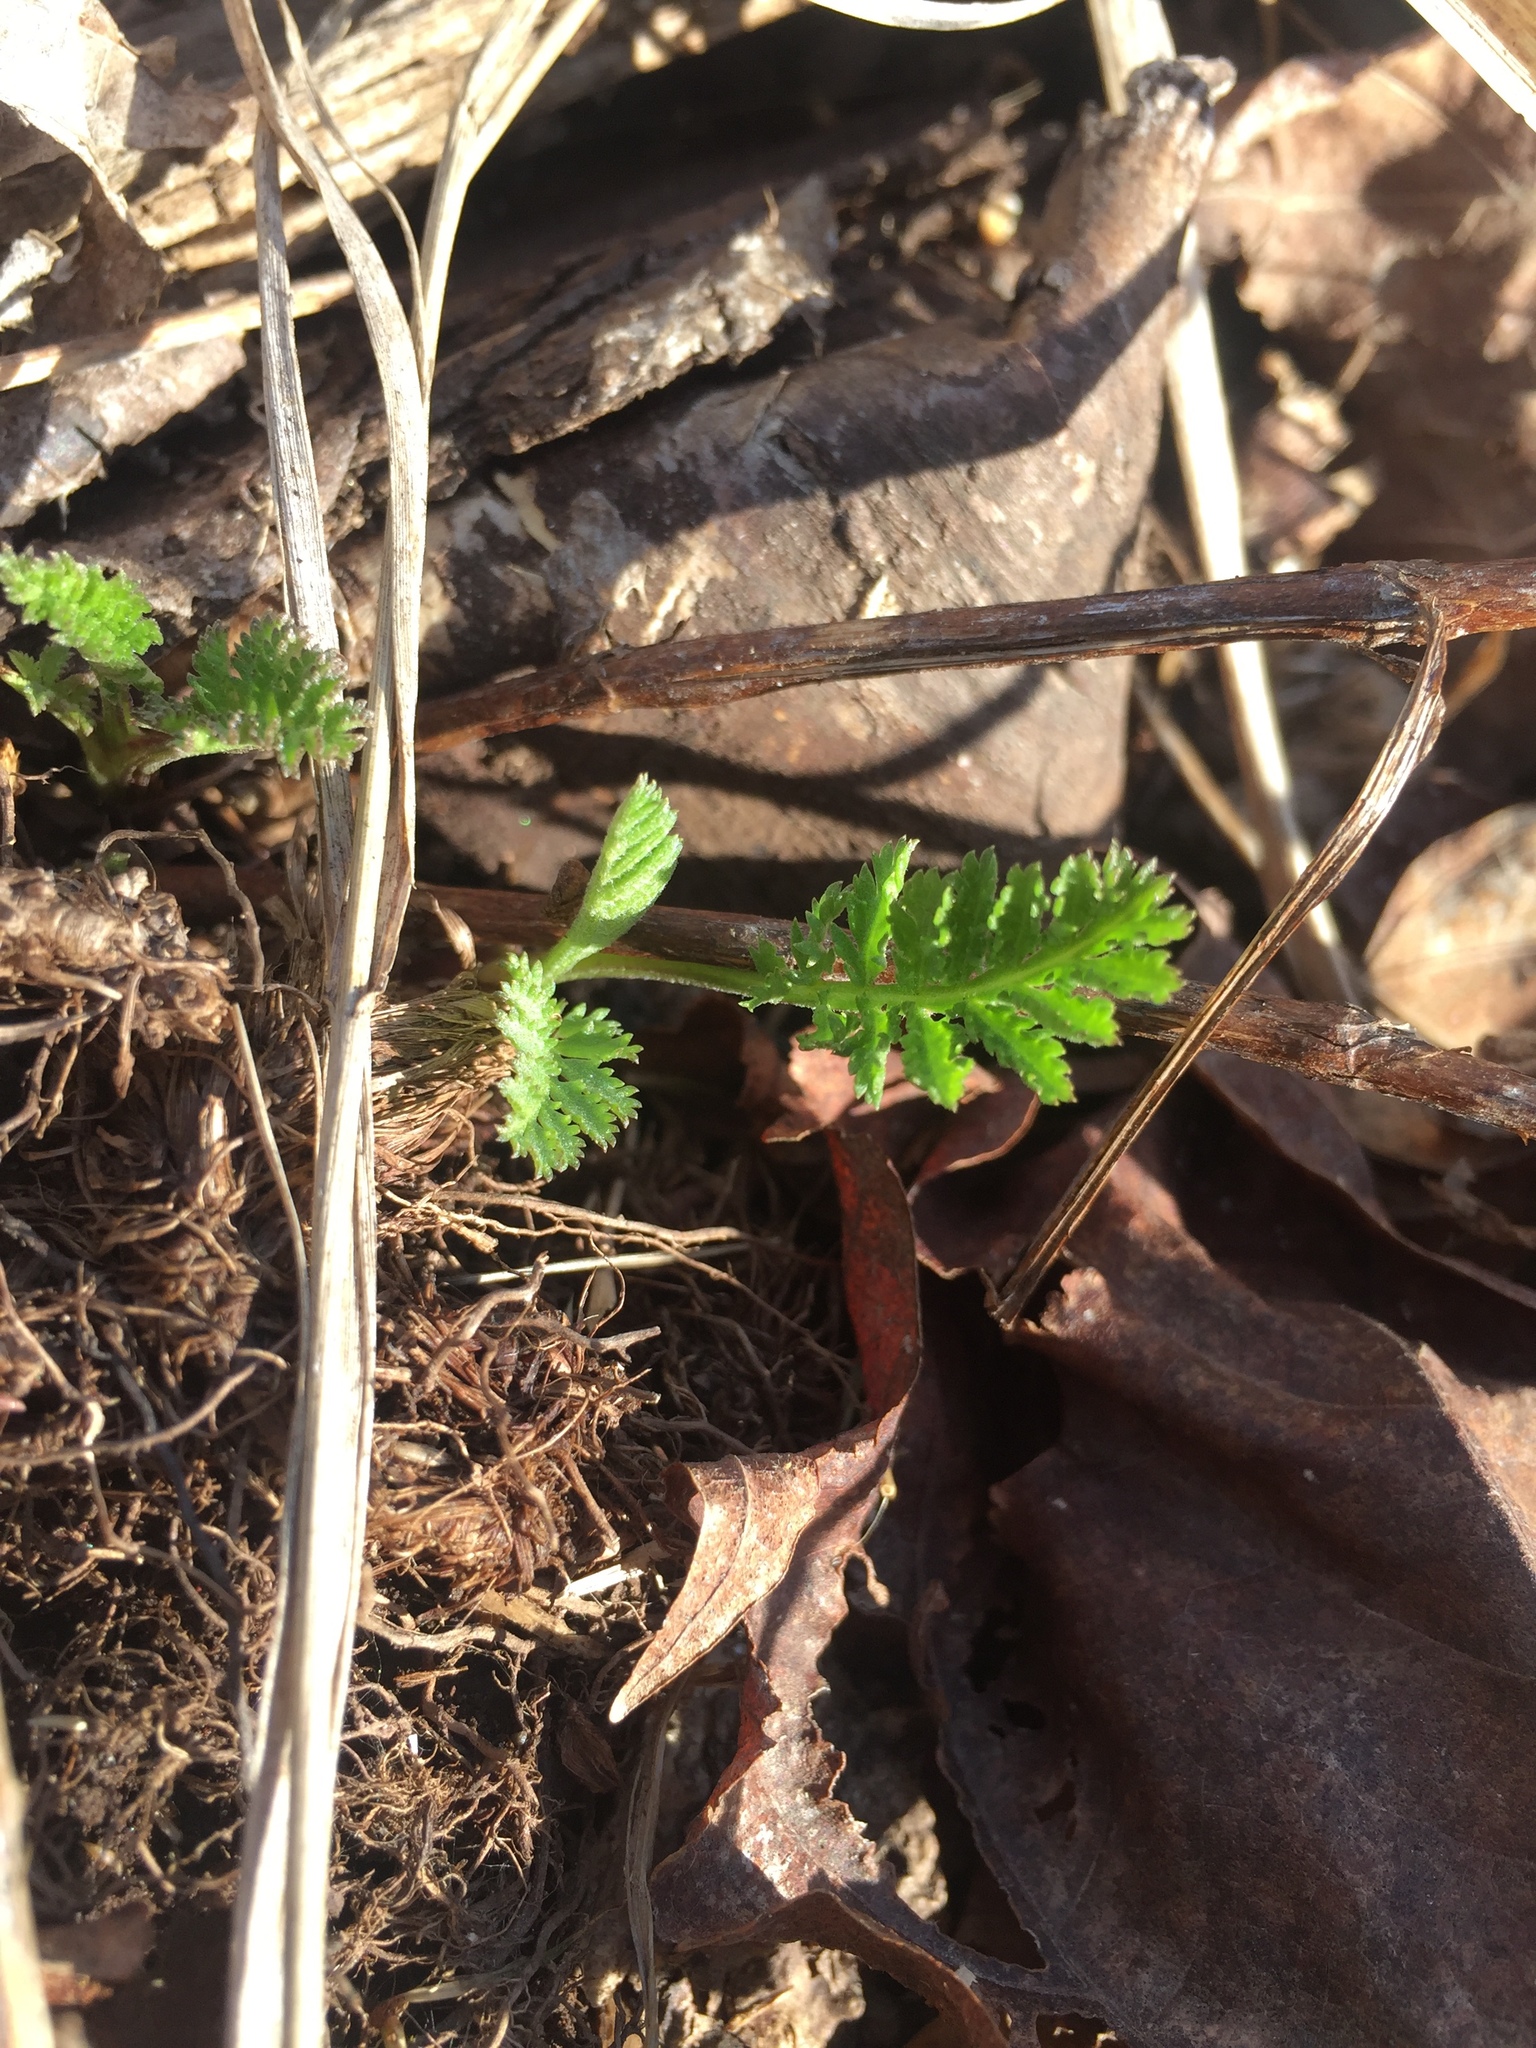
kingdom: Plantae
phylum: Tracheophyta
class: Magnoliopsida
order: Asterales
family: Asteraceae
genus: Tanacetum
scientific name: Tanacetum vulgare
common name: Common tansy
